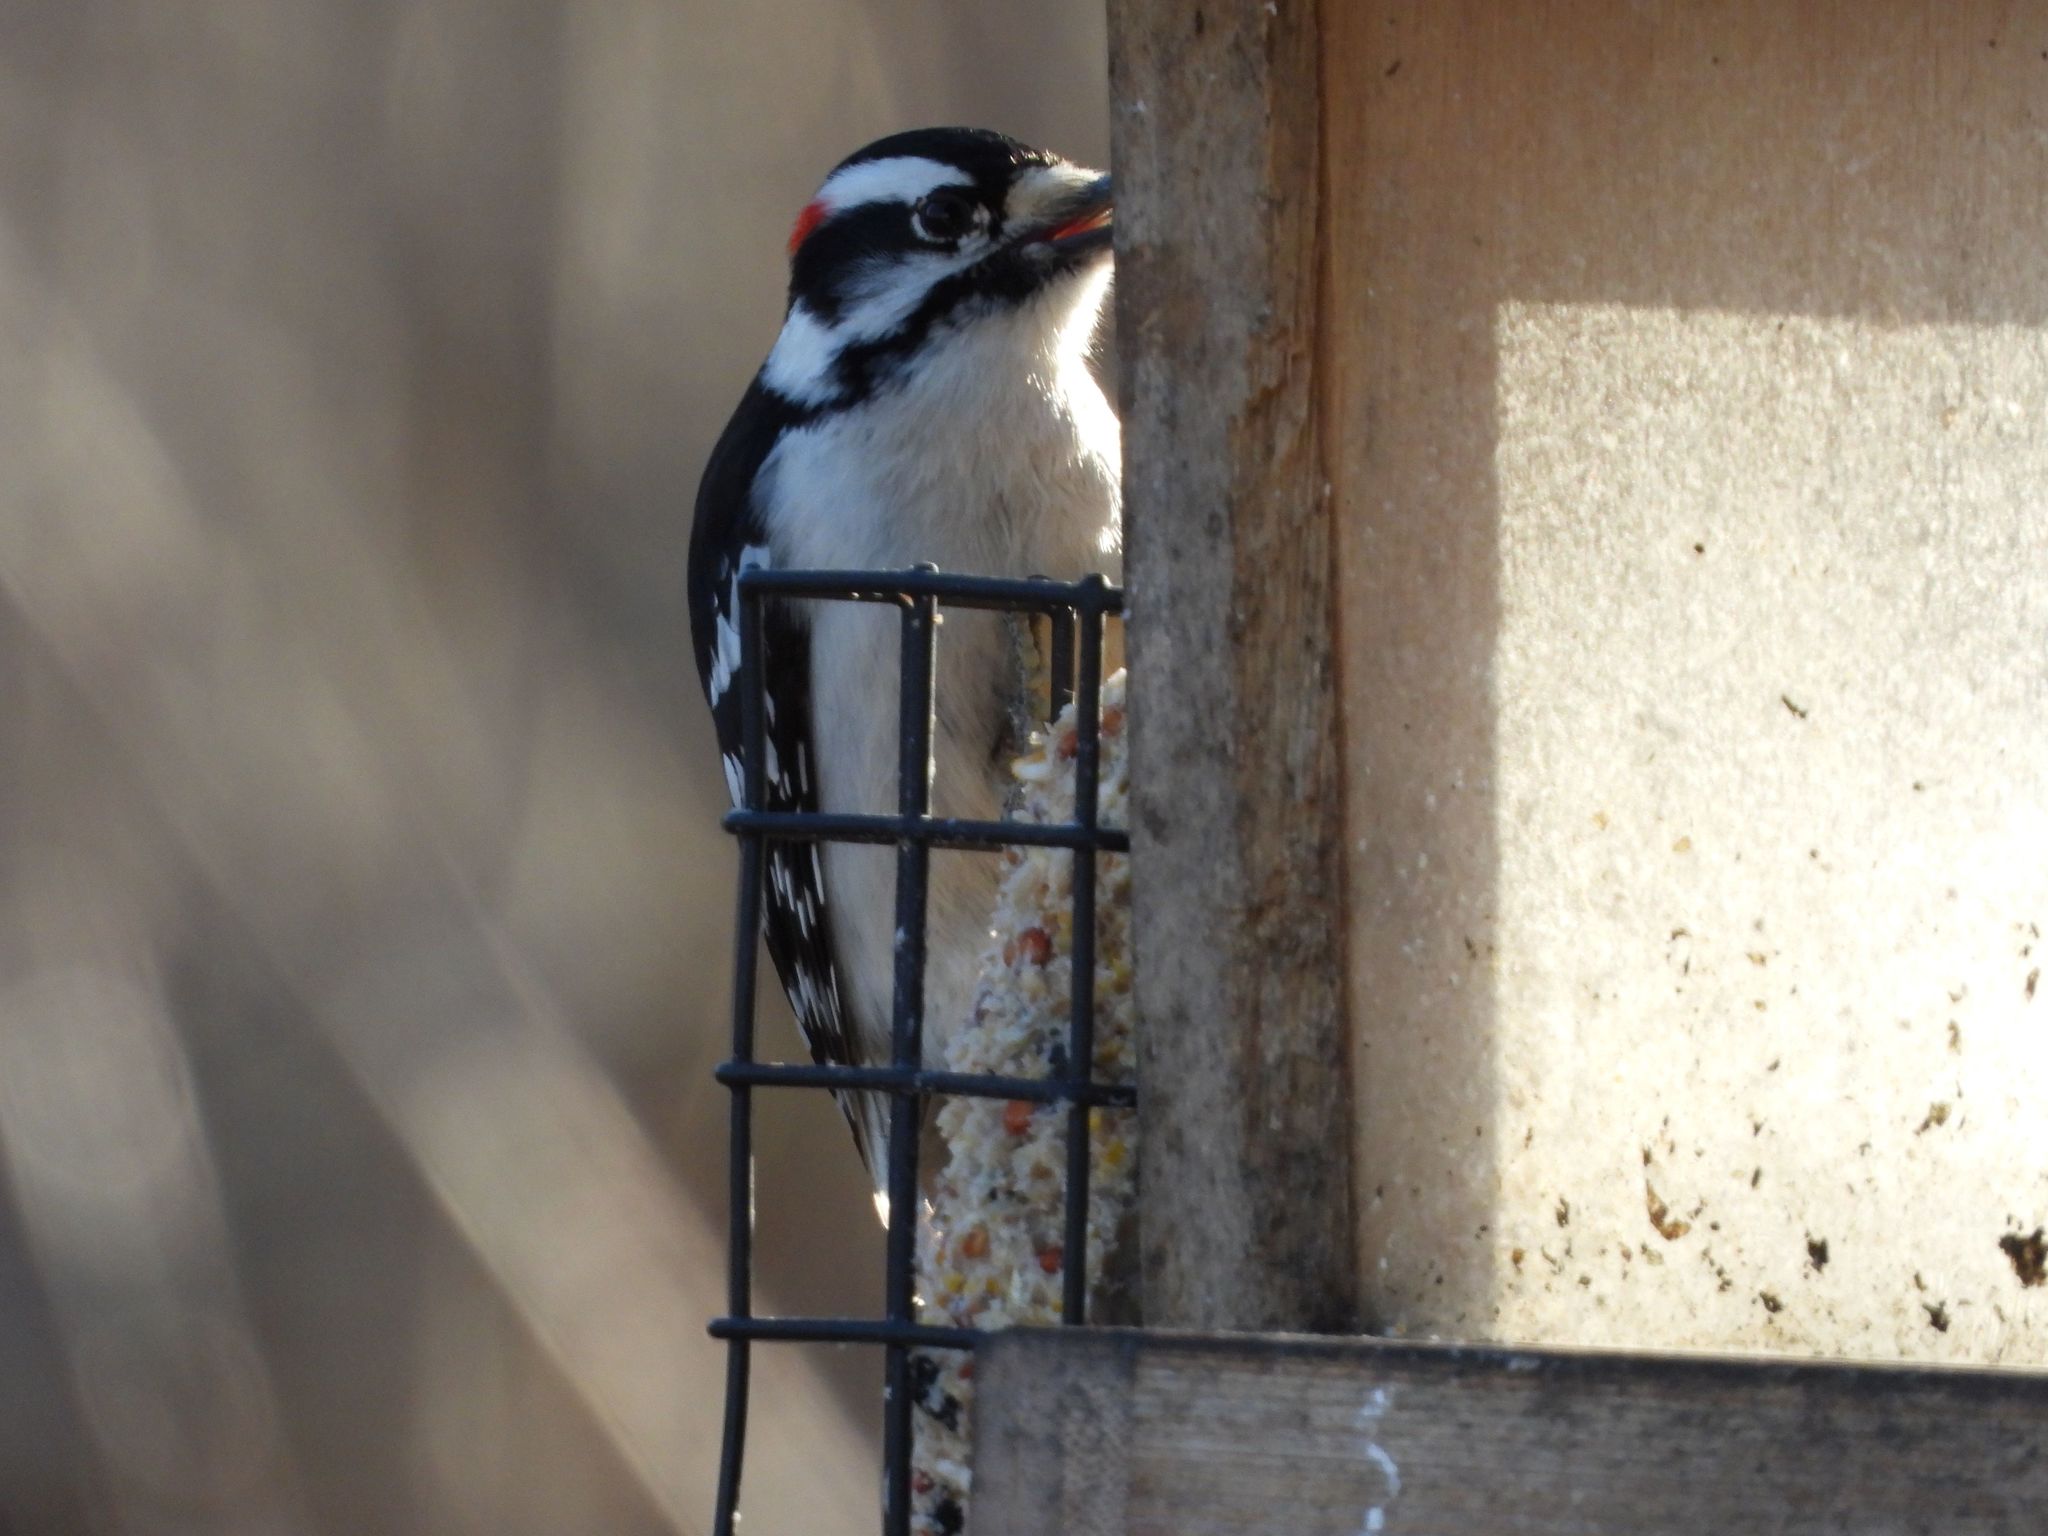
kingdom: Animalia
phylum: Chordata
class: Aves
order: Piciformes
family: Picidae
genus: Dryobates
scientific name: Dryobates pubescens
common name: Downy woodpecker
